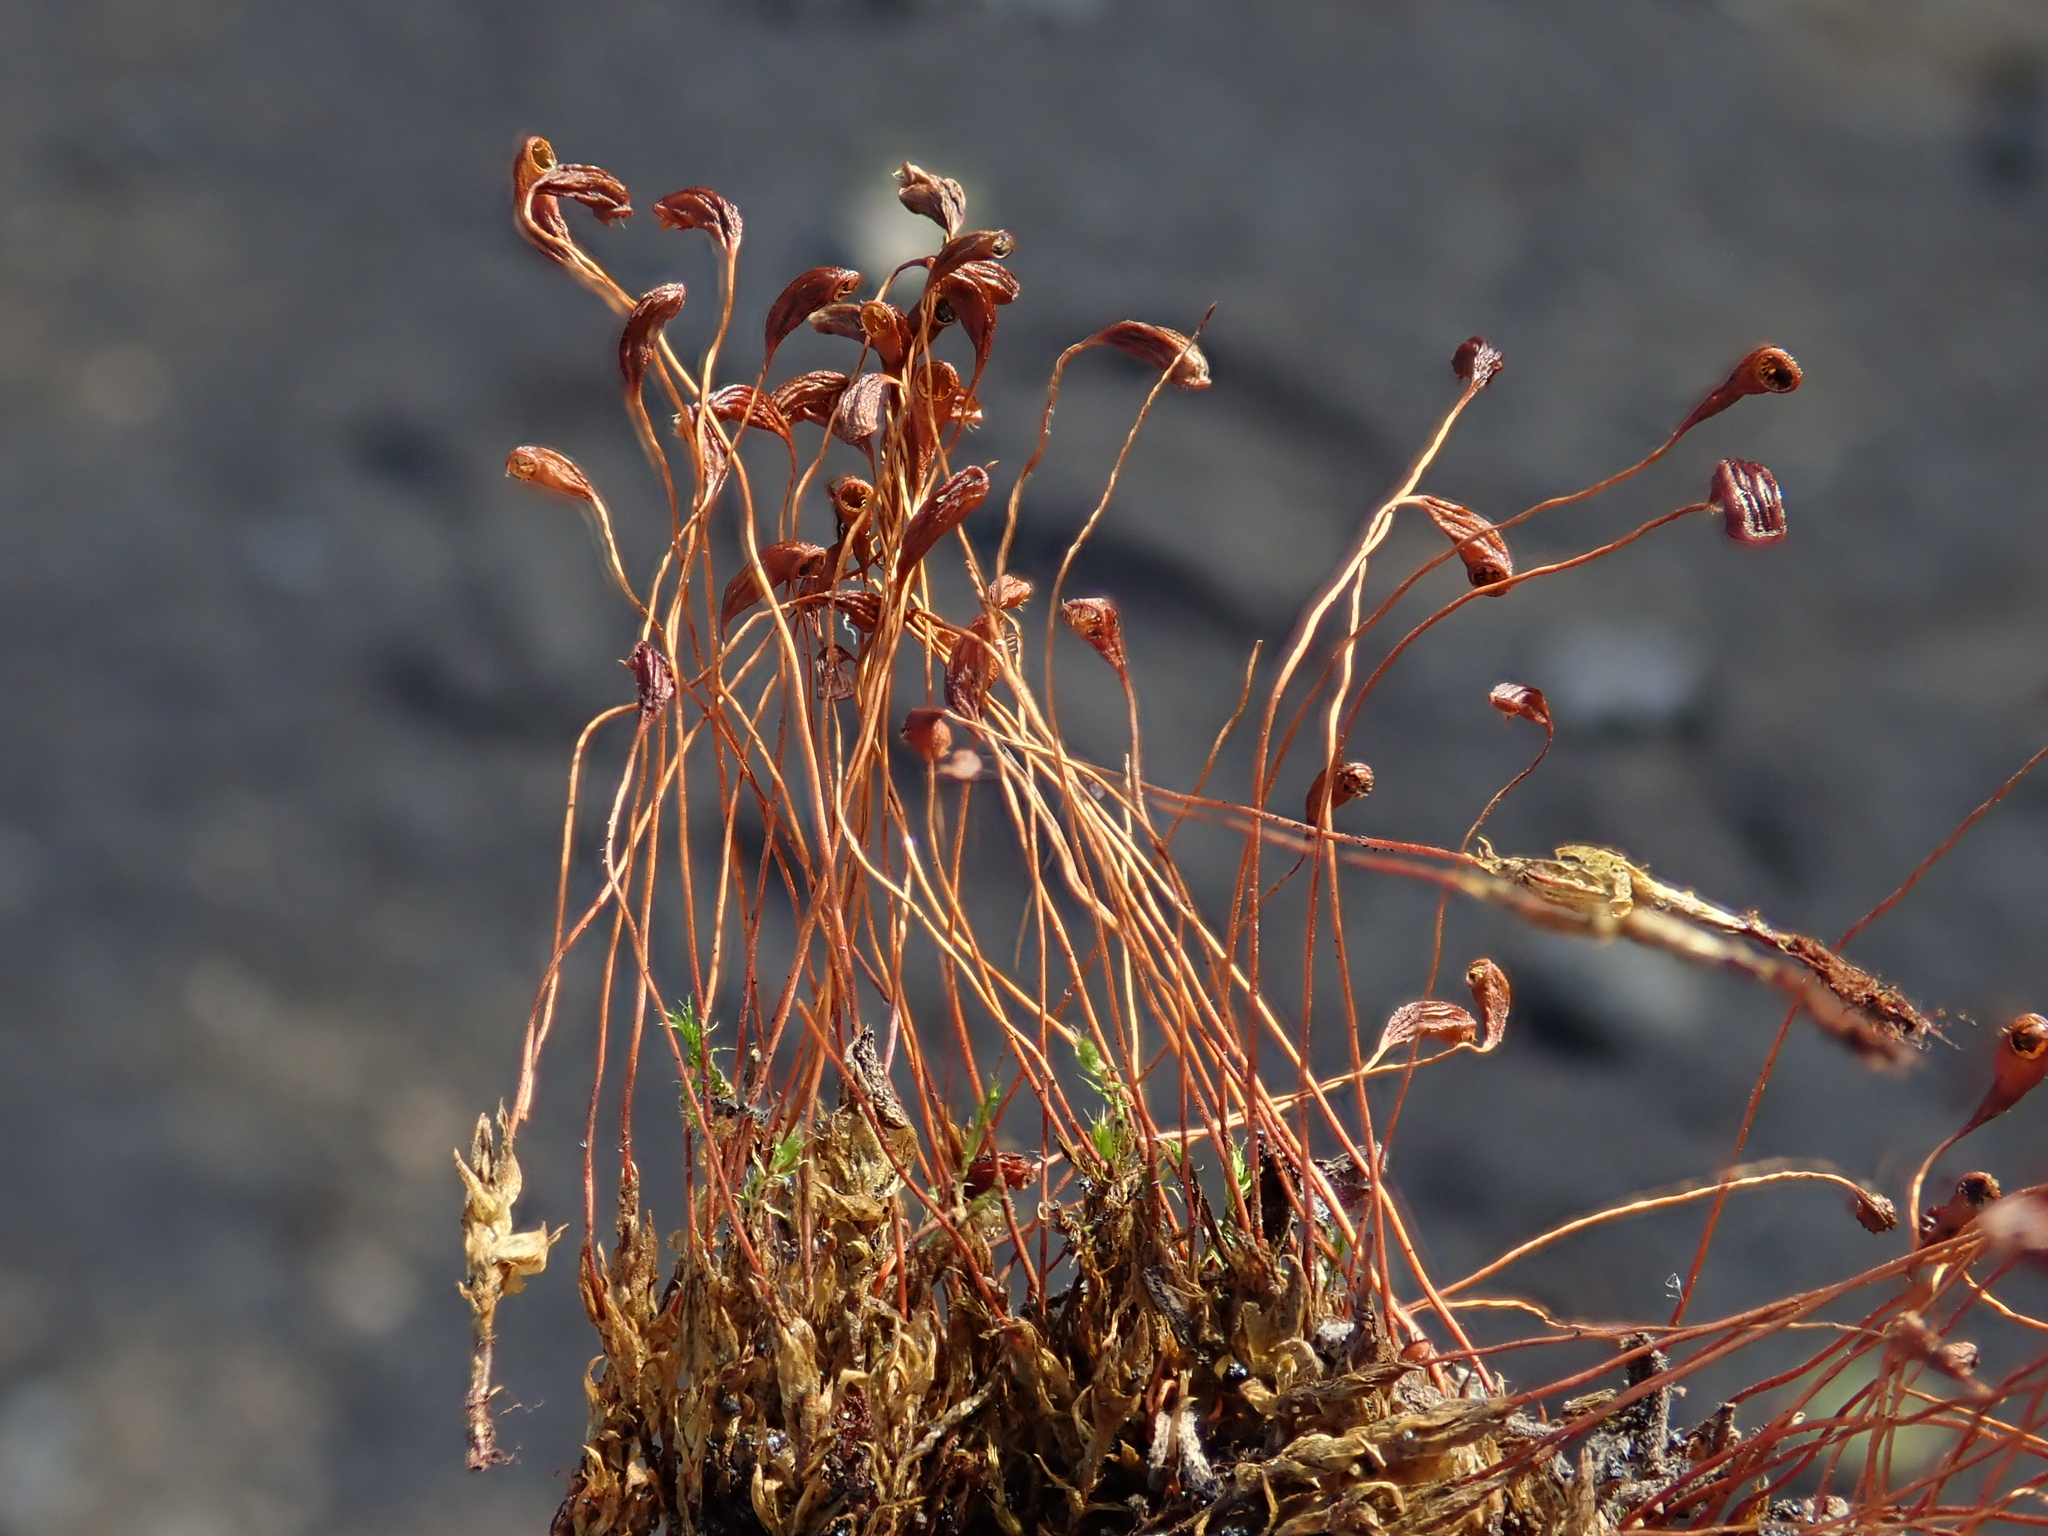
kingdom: Plantae
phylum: Bryophyta
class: Bryopsida
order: Funariales
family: Funariaceae
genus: Funaria
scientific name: Funaria hygrometrica
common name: Common cord moss
